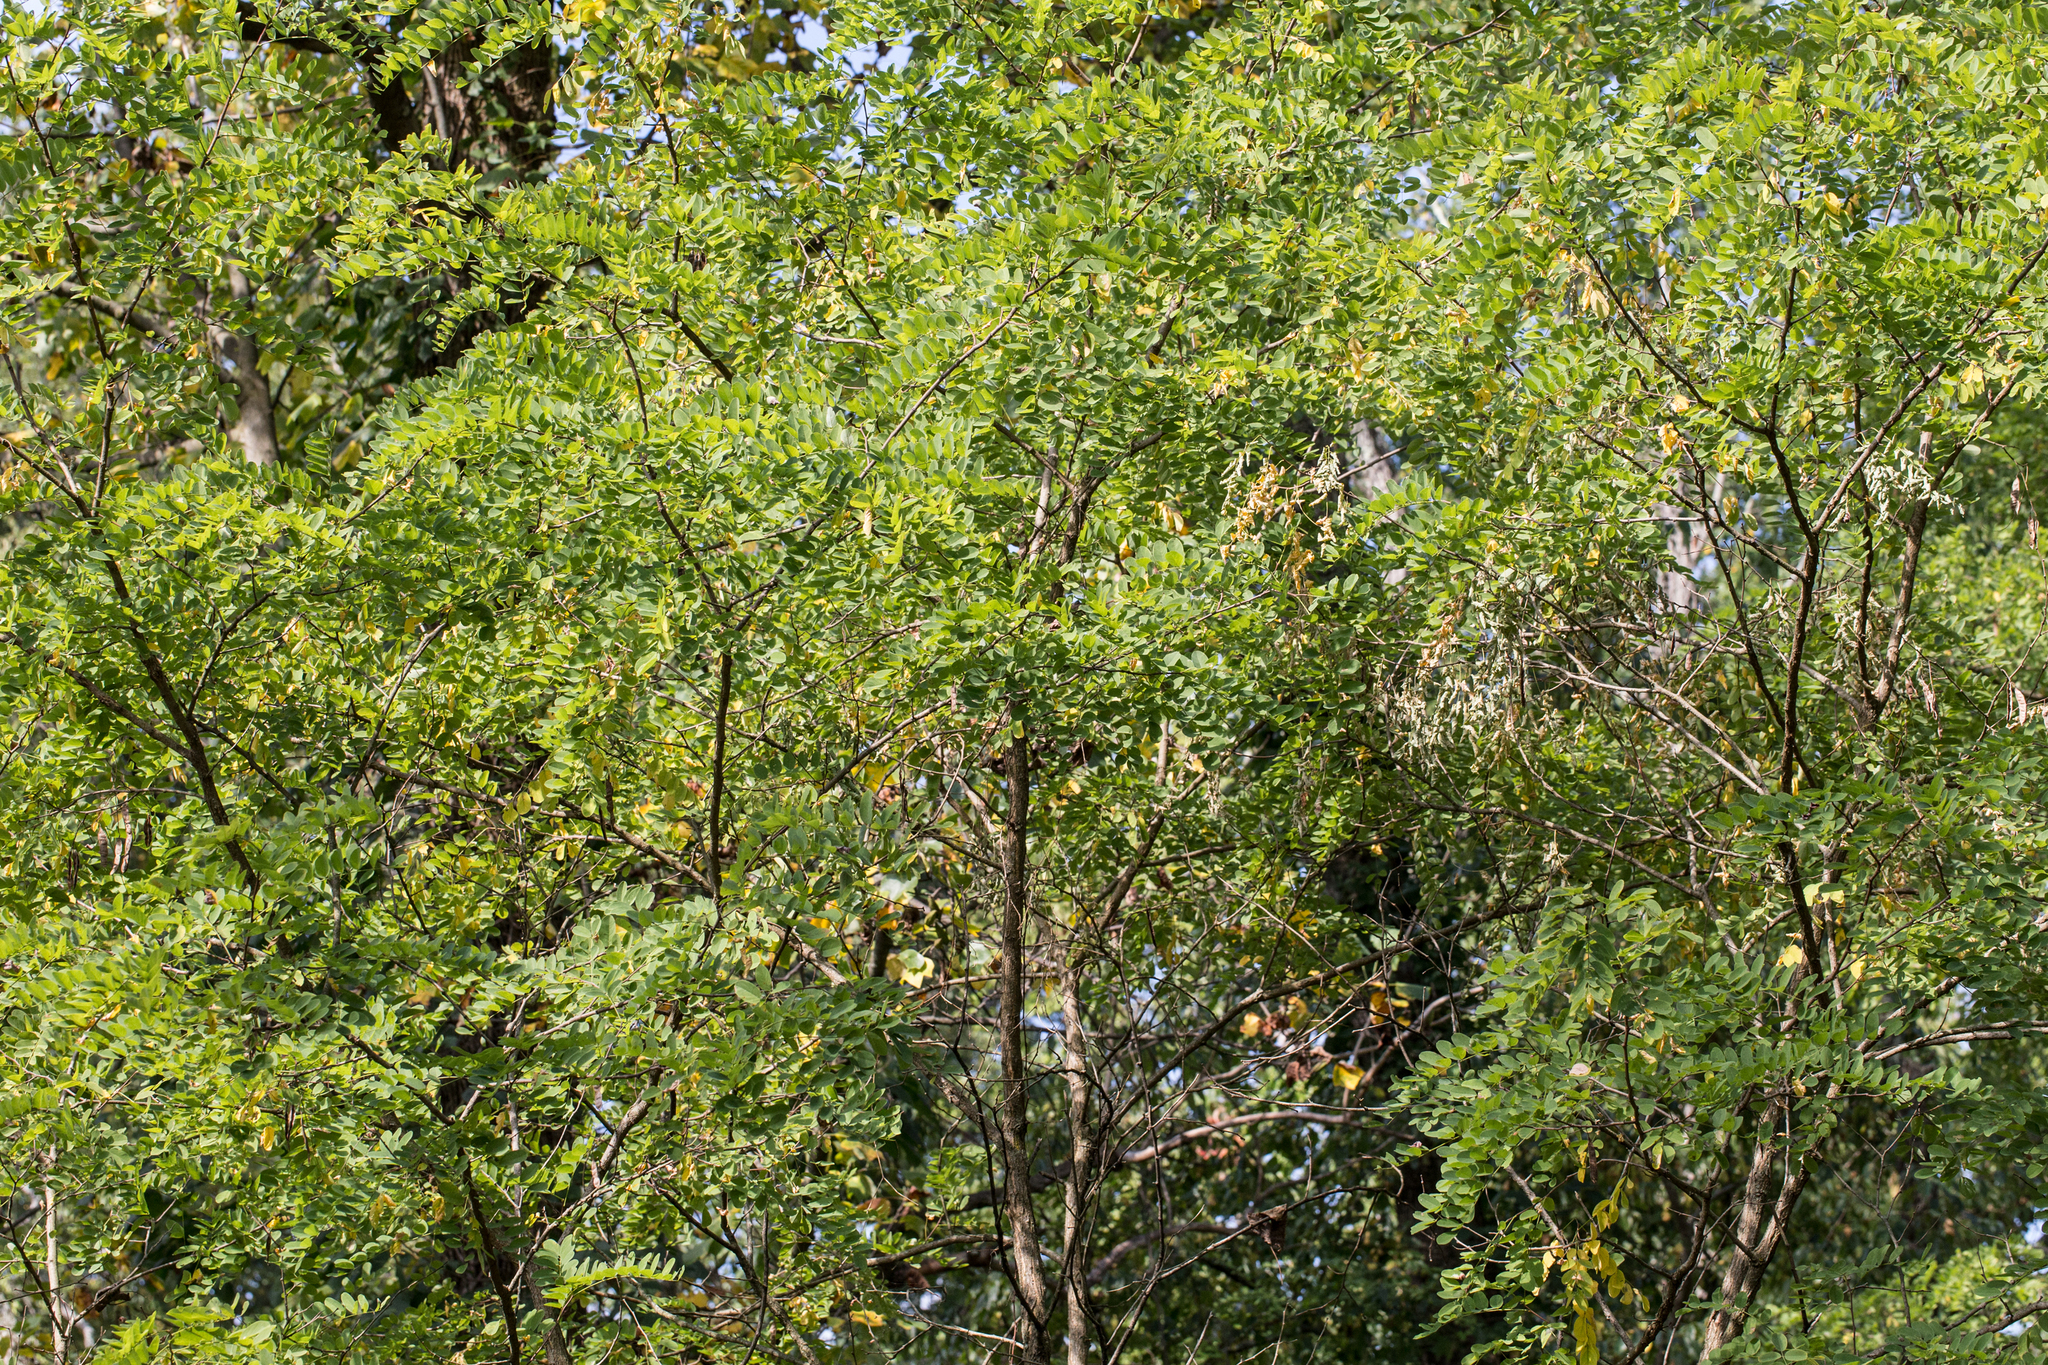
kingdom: Plantae
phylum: Tracheophyta
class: Magnoliopsida
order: Fabales
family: Fabaceae
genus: Robinia
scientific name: Robinia pseudoacacia
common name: Black locust
